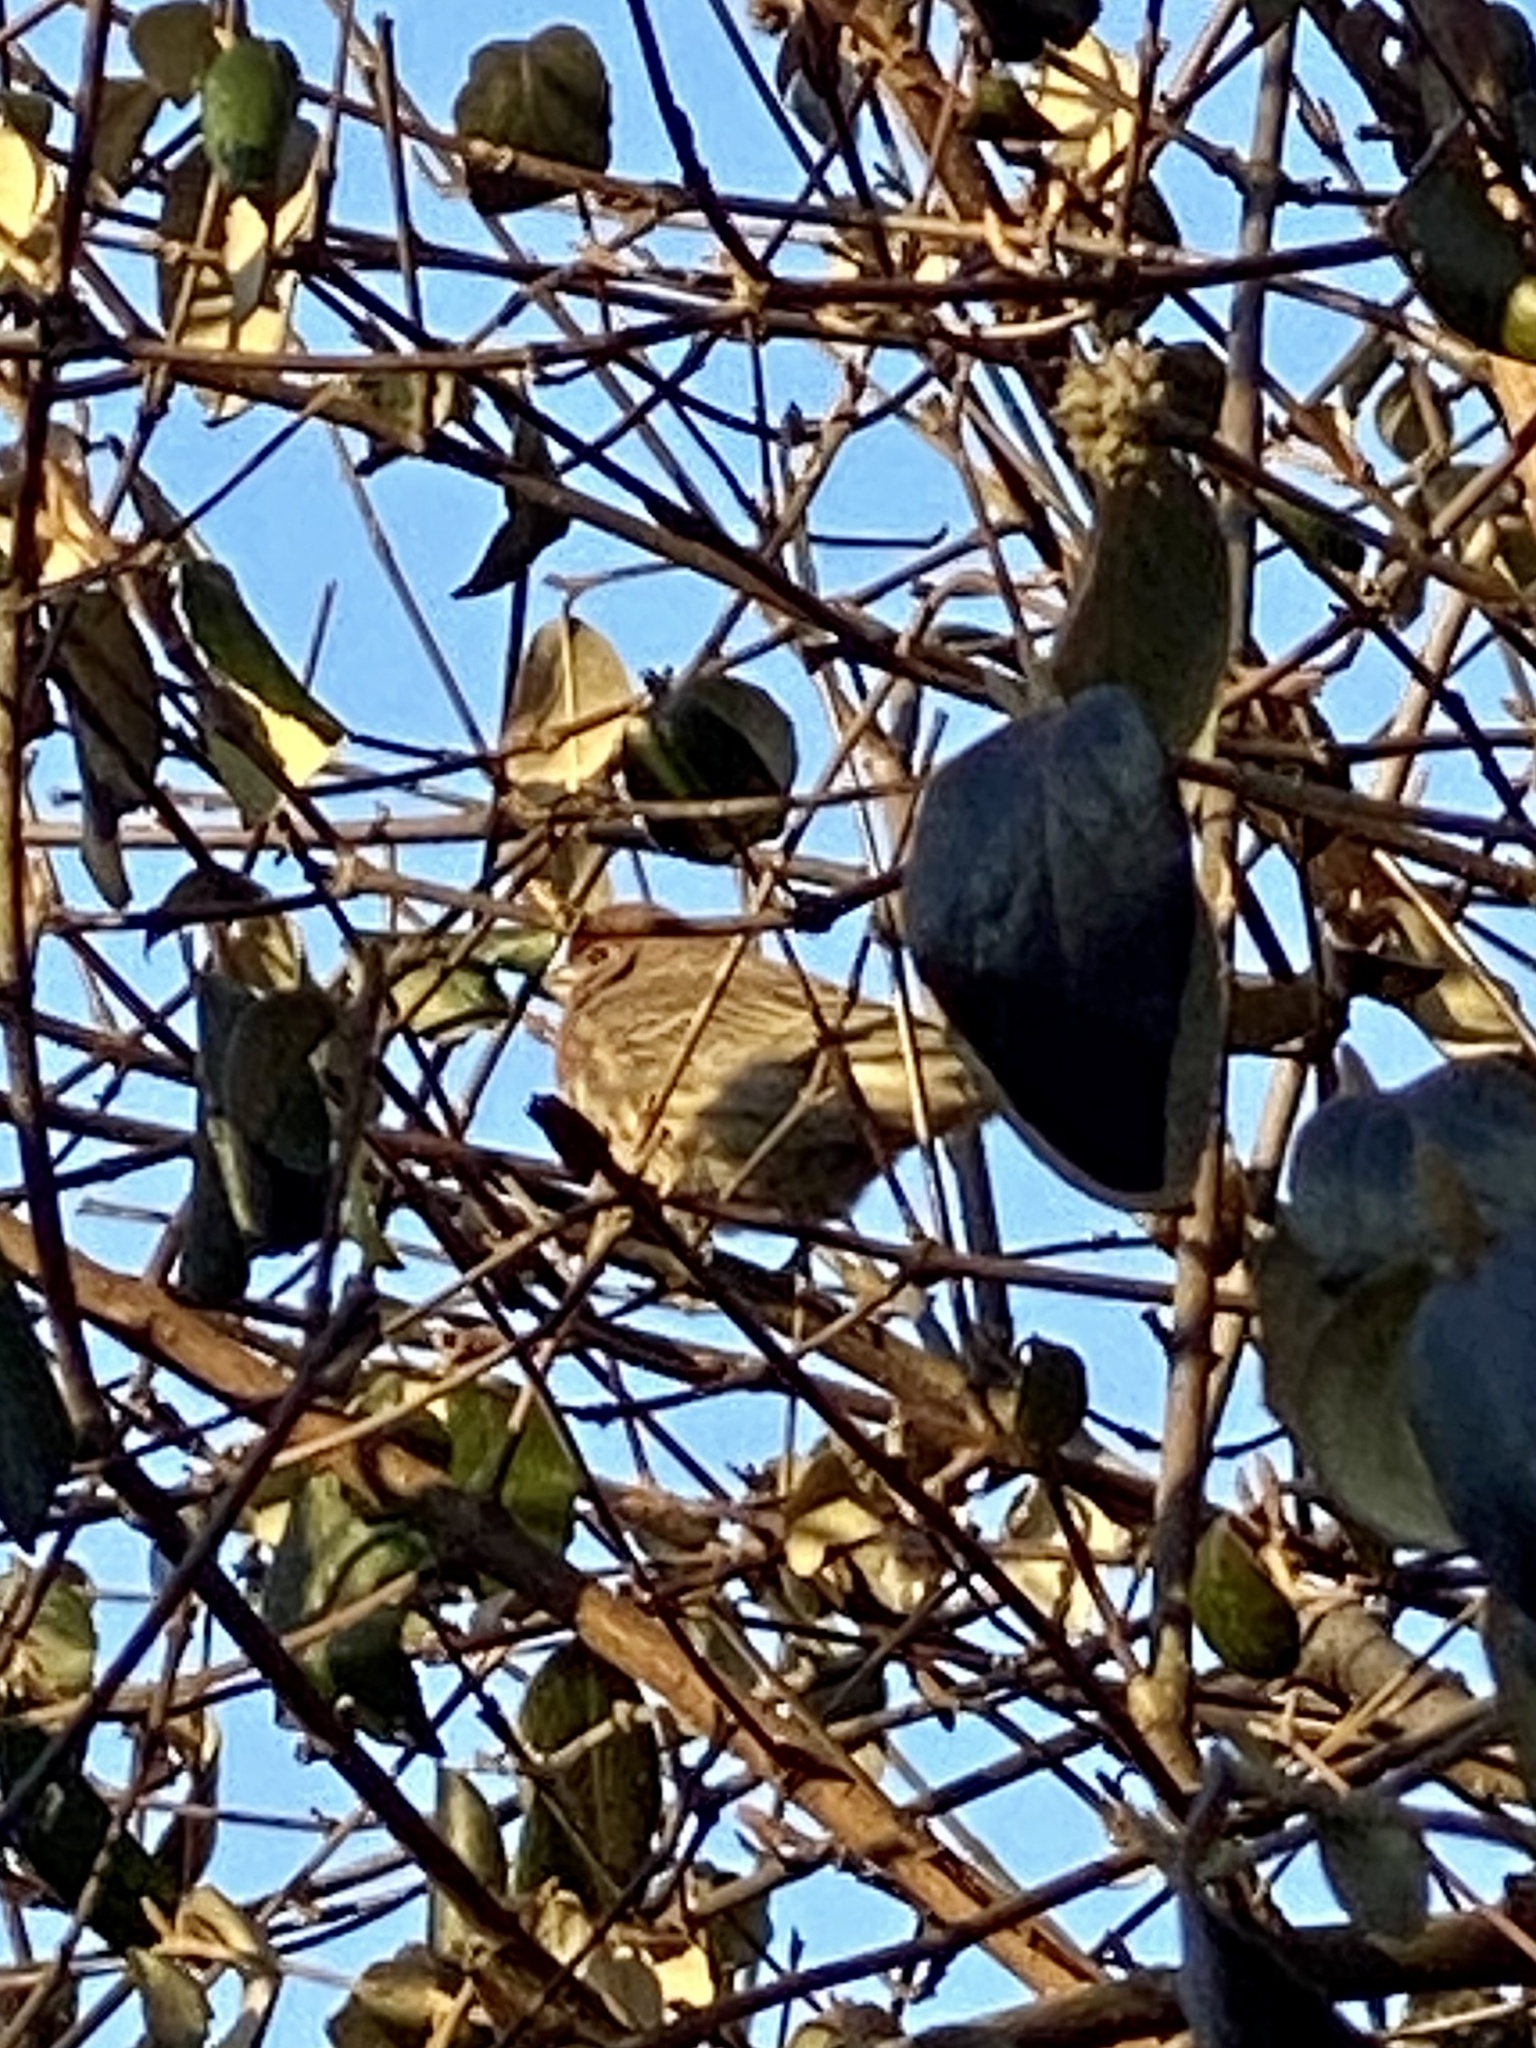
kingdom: Animalia
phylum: Chordata
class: Aves
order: Passeriformes
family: Fringillidae
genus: Haemorhous
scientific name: Haemorhous mexicanus
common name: House finch
